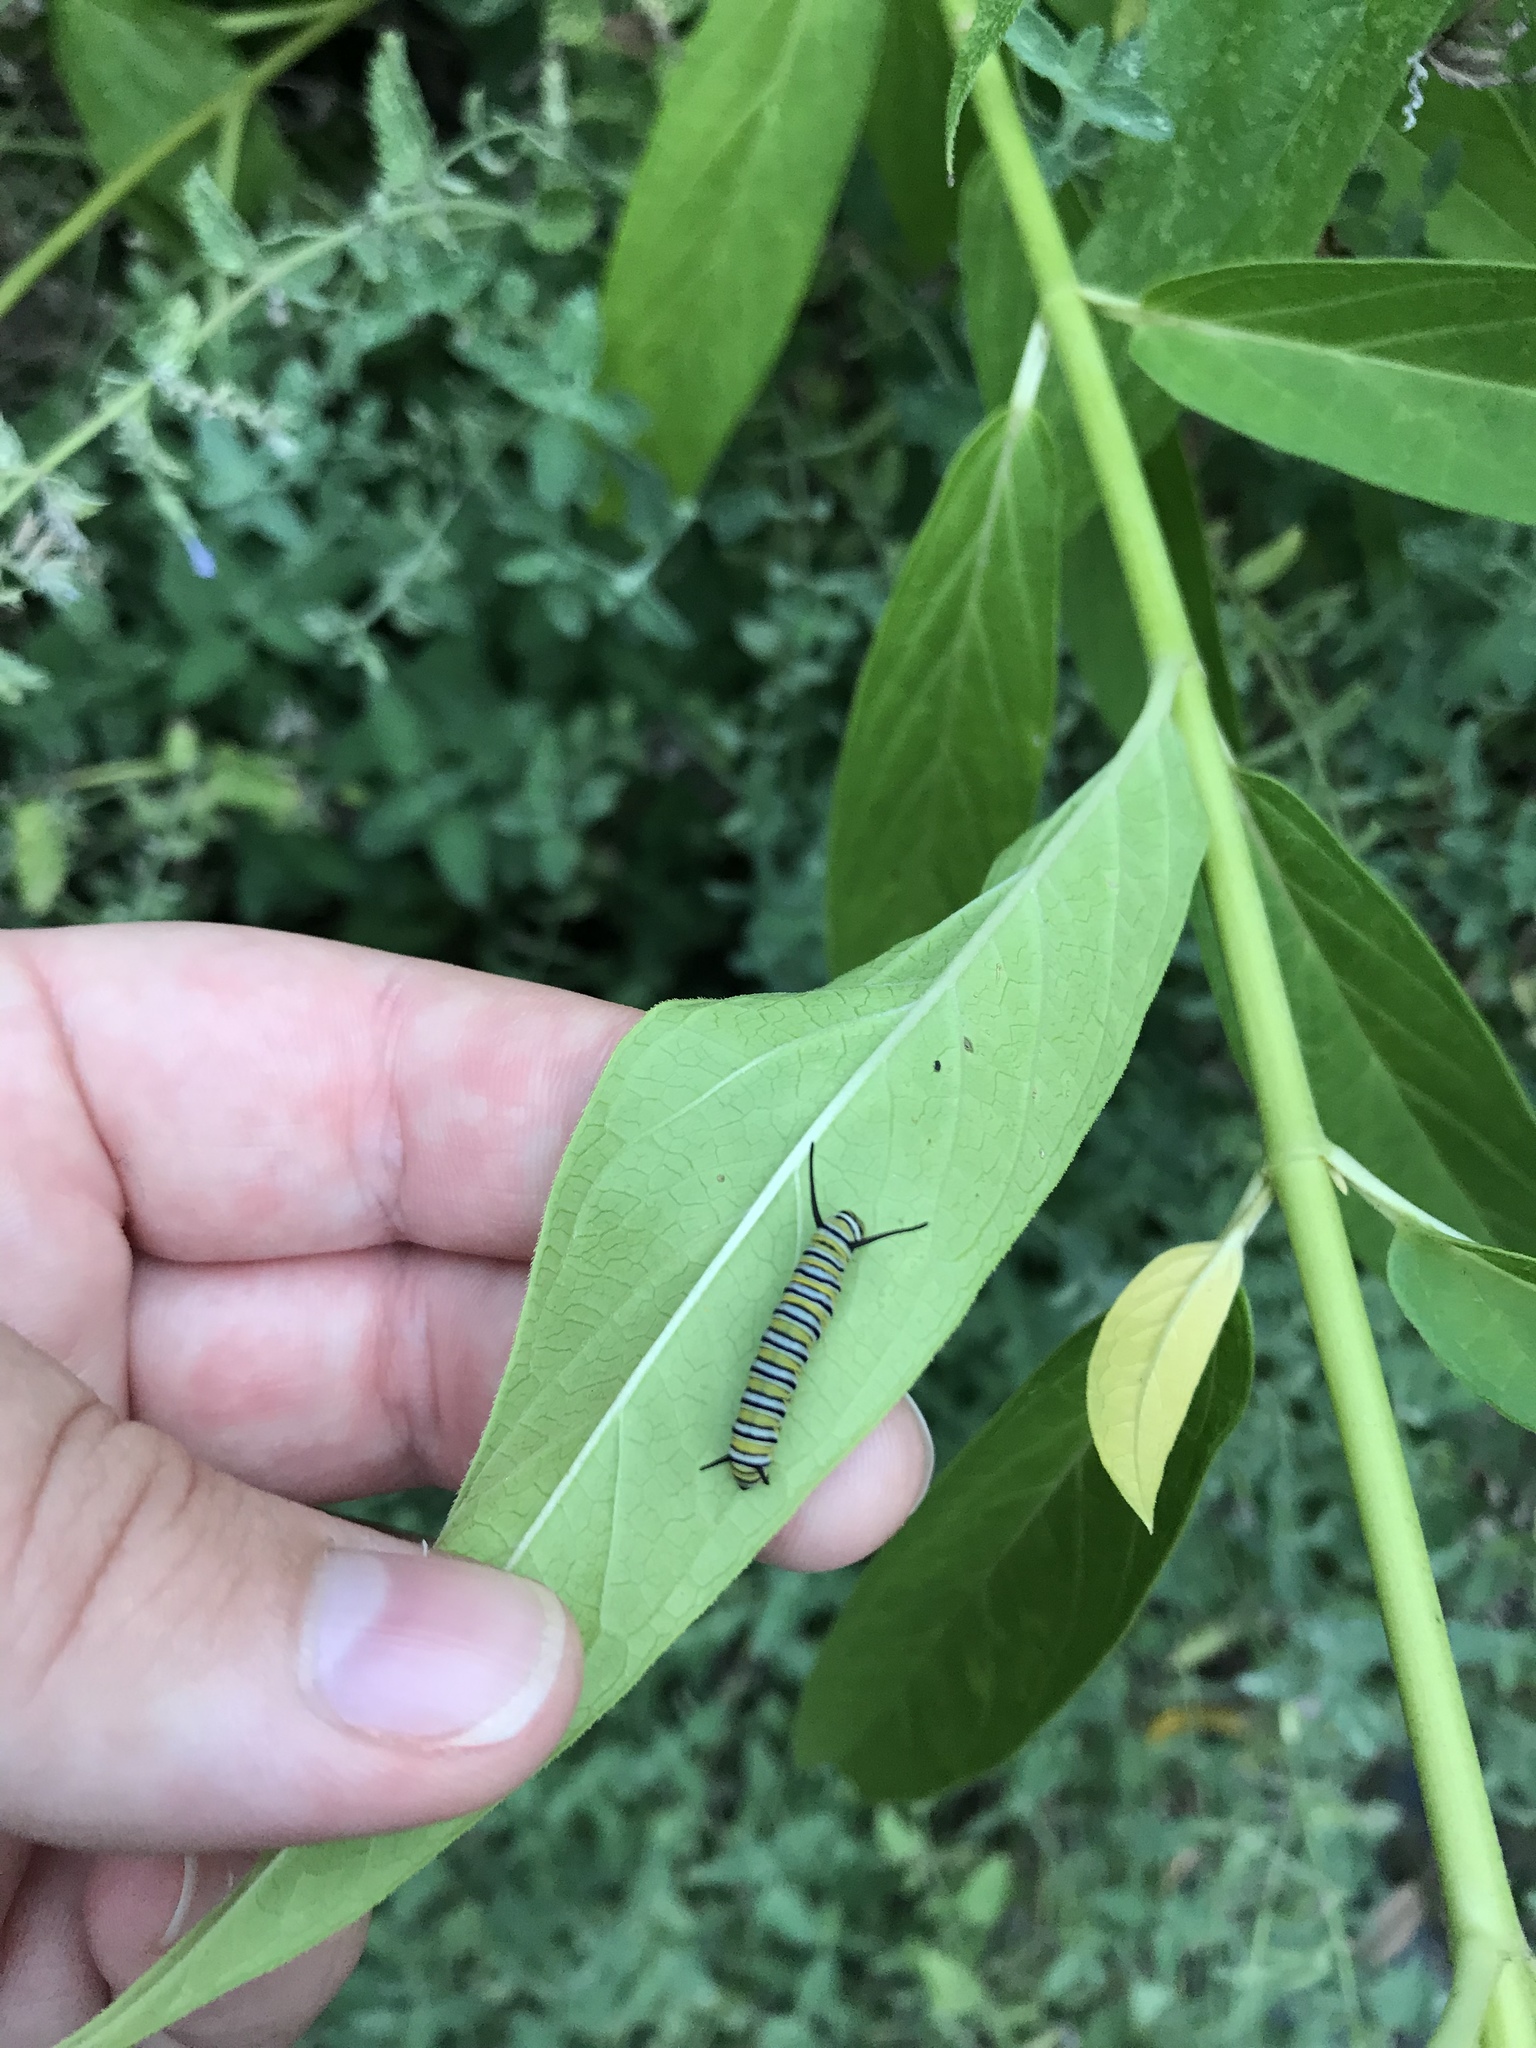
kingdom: Animalia
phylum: Arthropoda
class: Insecta
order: Lepidoptera
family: Nymphalidae
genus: Danaus
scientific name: Danaus plexippus
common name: Monarch
